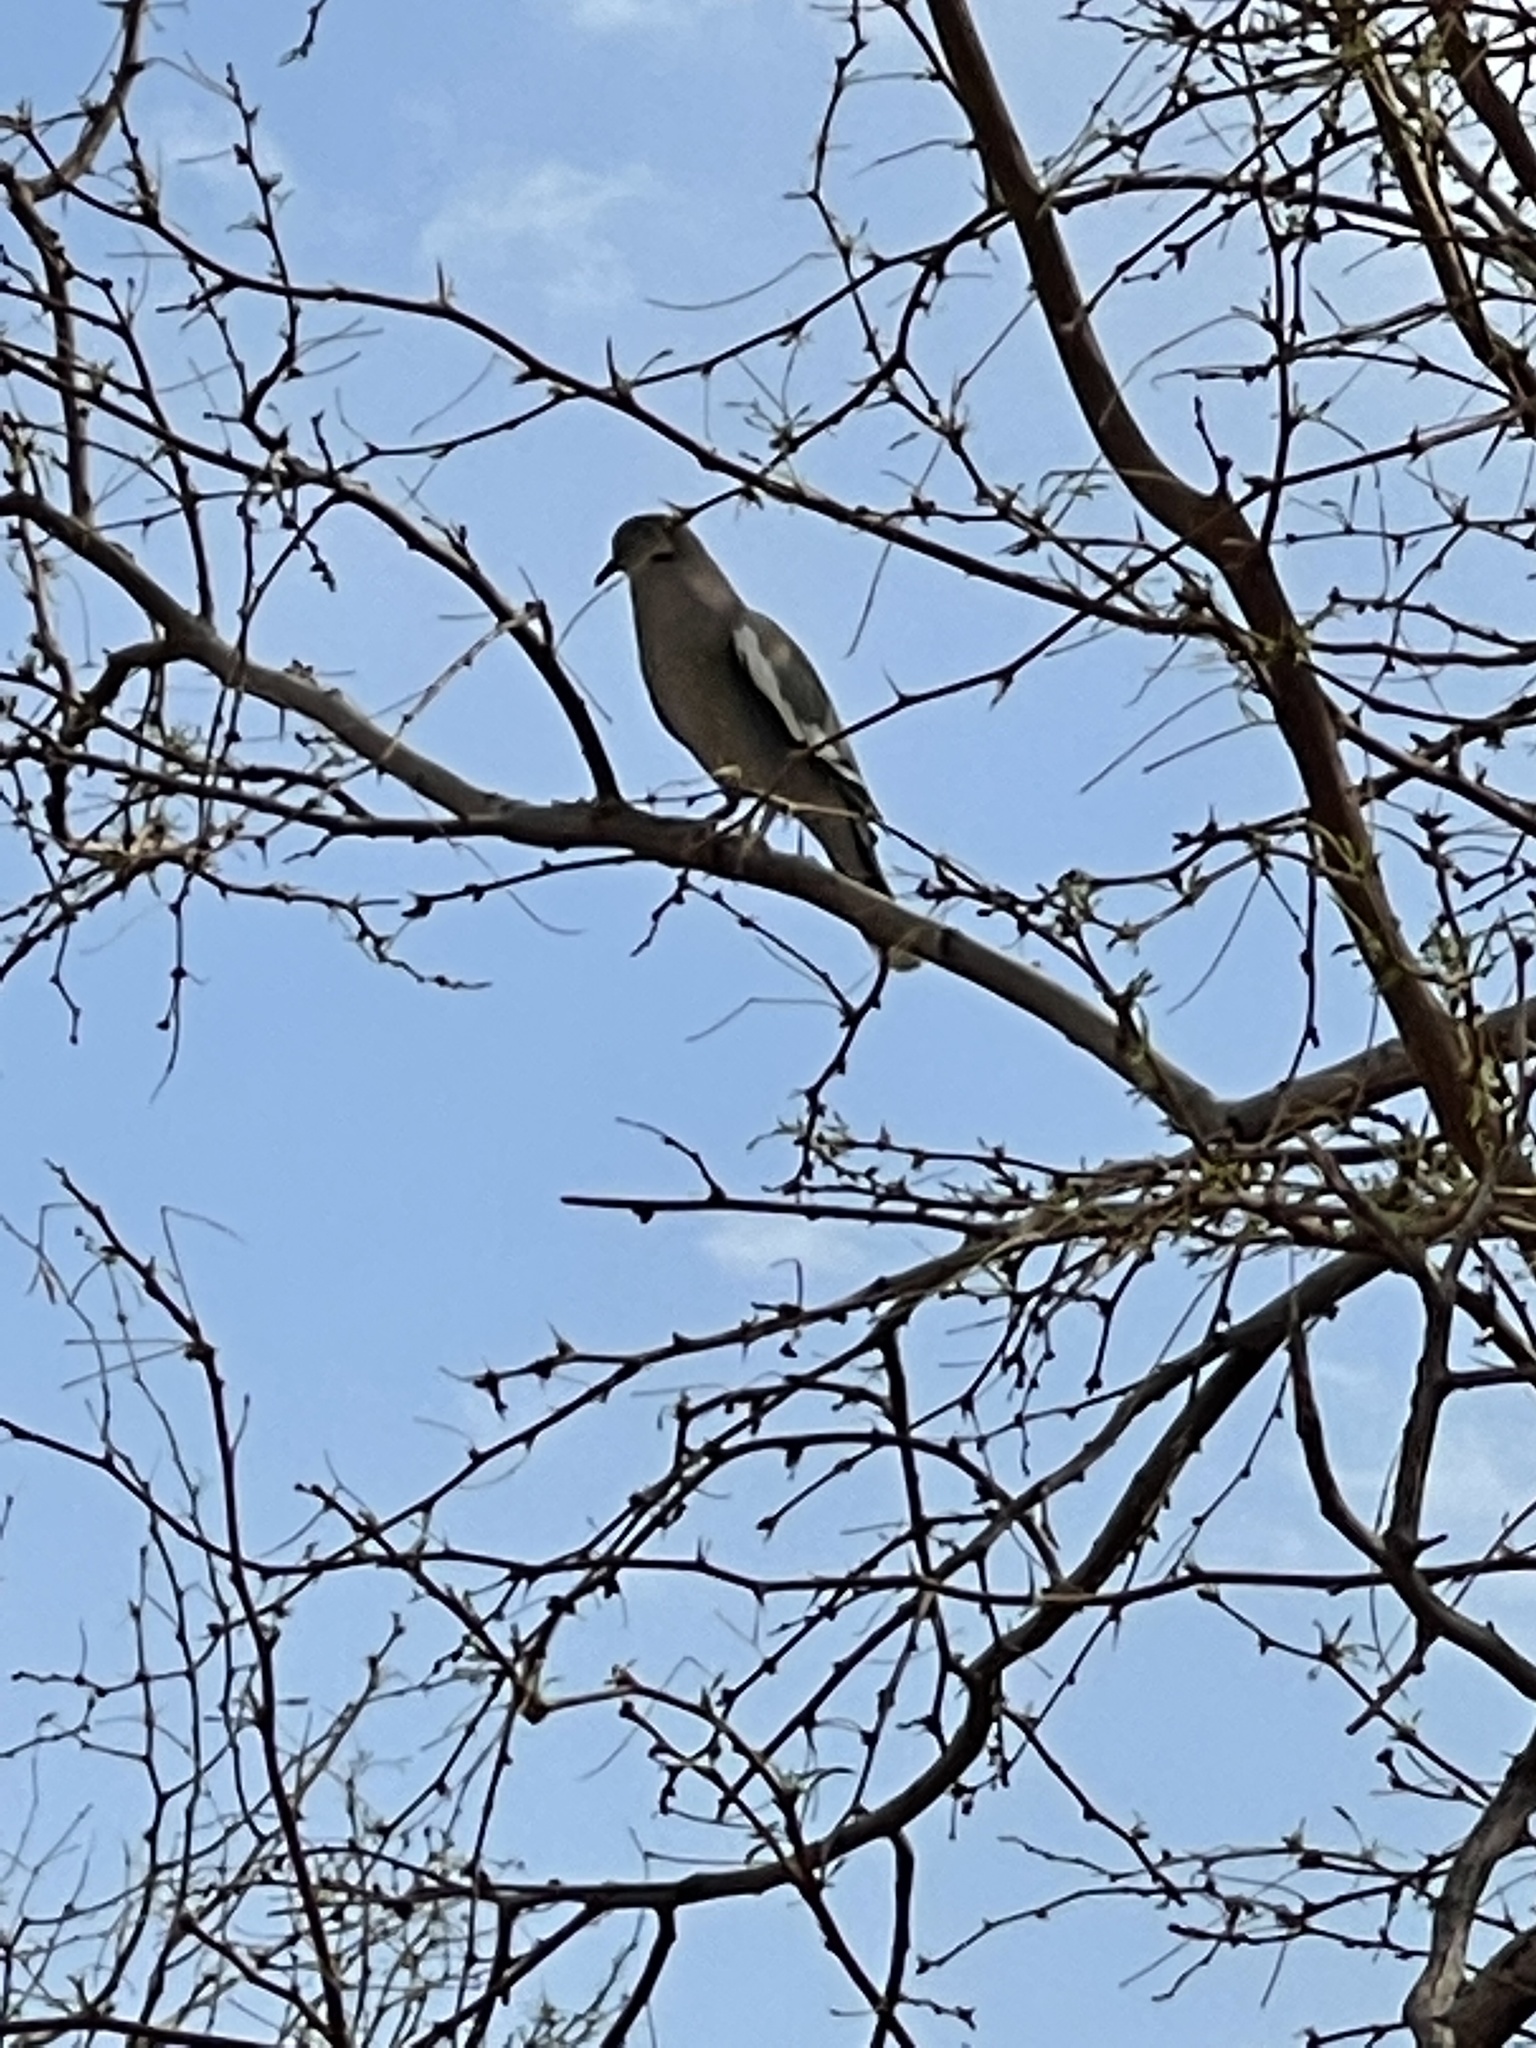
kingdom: Animalia
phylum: Chordata
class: Aves
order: Columbiformes
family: Columbidae
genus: Zenaida
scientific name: Zenaida asiatica
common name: White-winged dove
